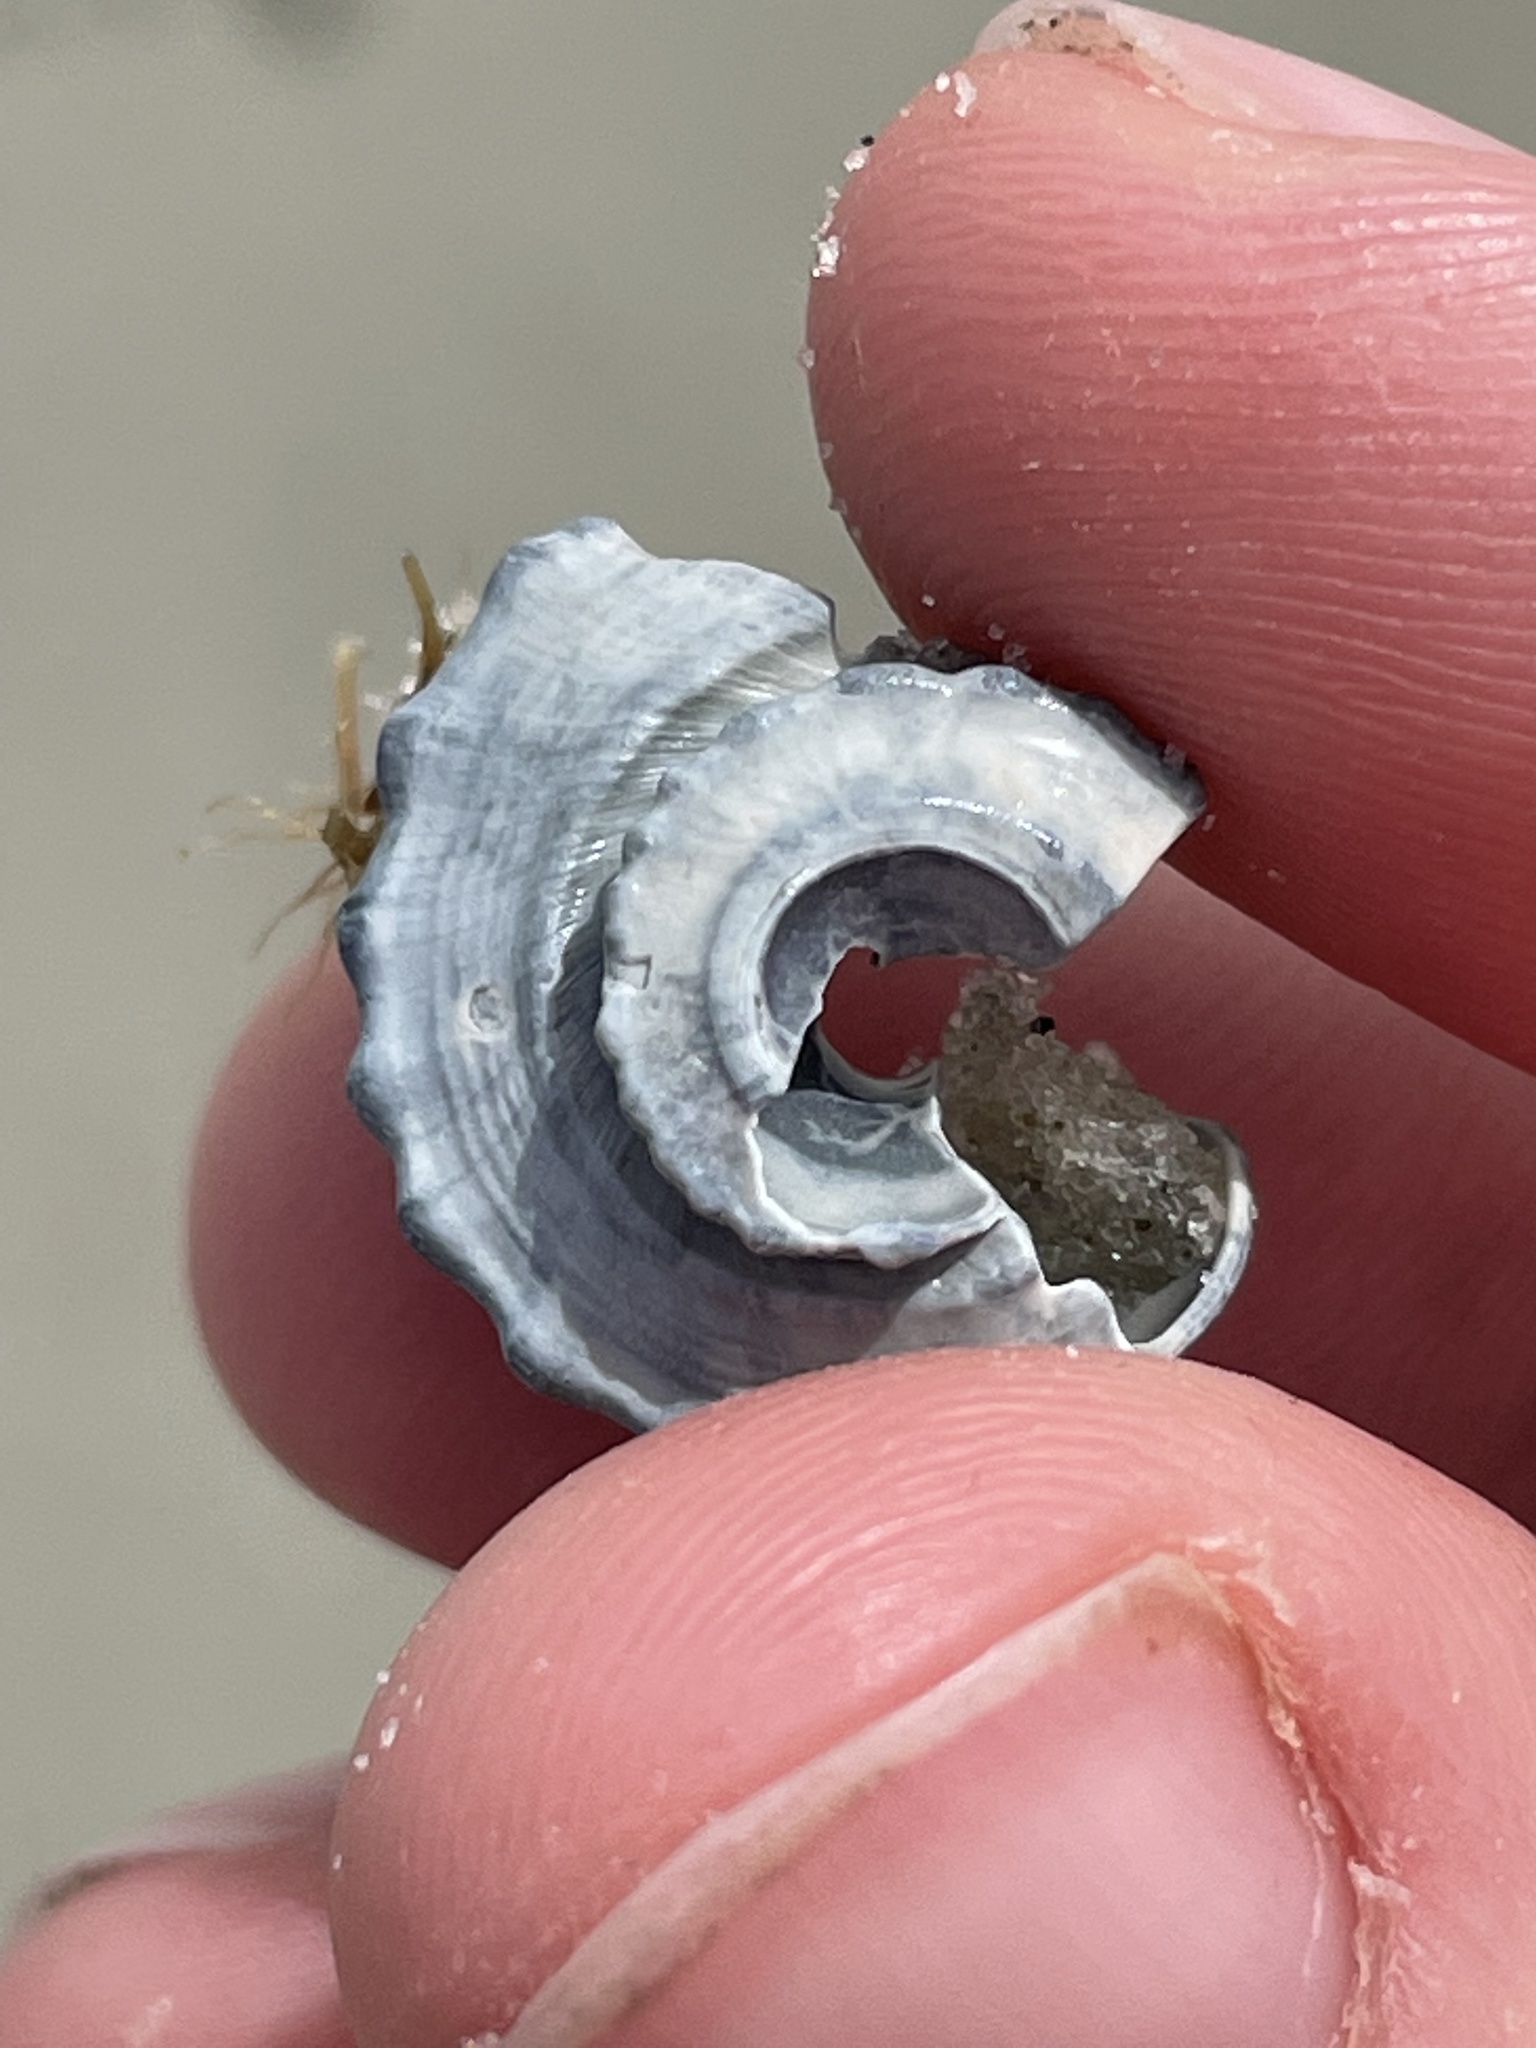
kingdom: Animalia
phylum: Mollusca
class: Gastropoda
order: Neogastropoda
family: Busyconidae
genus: Busycotypus
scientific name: Busycotypus canaliculatus
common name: Channeled whelk
